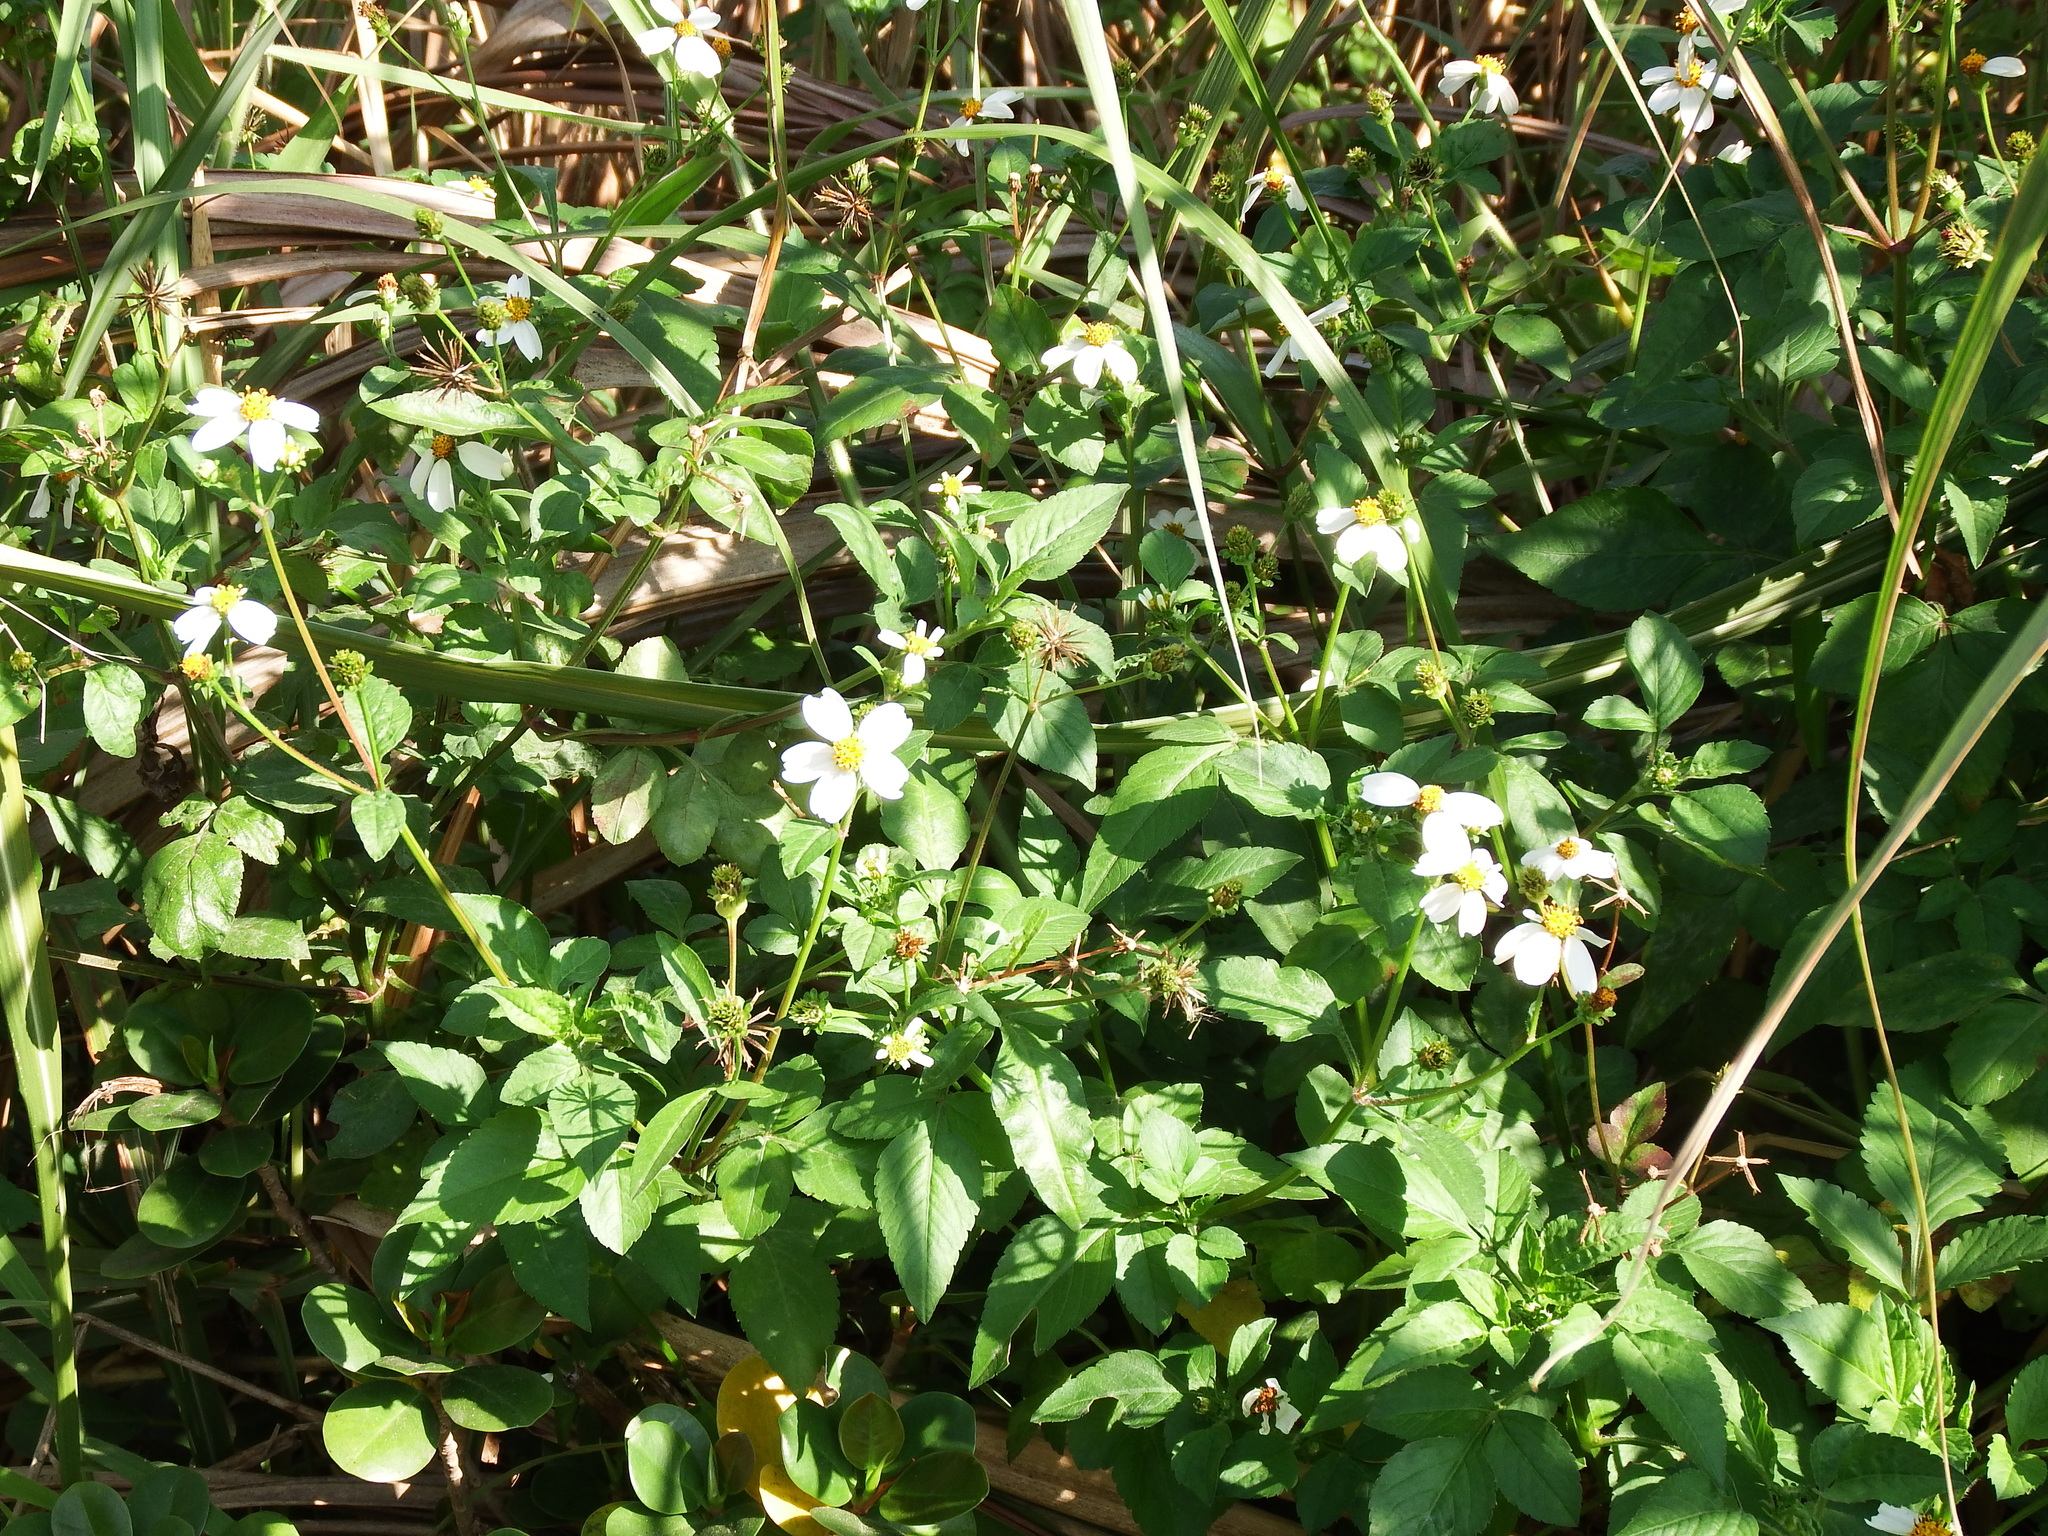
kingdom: Plantae
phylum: Tracheophyta
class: Magnoliopsida
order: Asterales
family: Asteraceae
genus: Bidens
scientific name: Bidens alba
